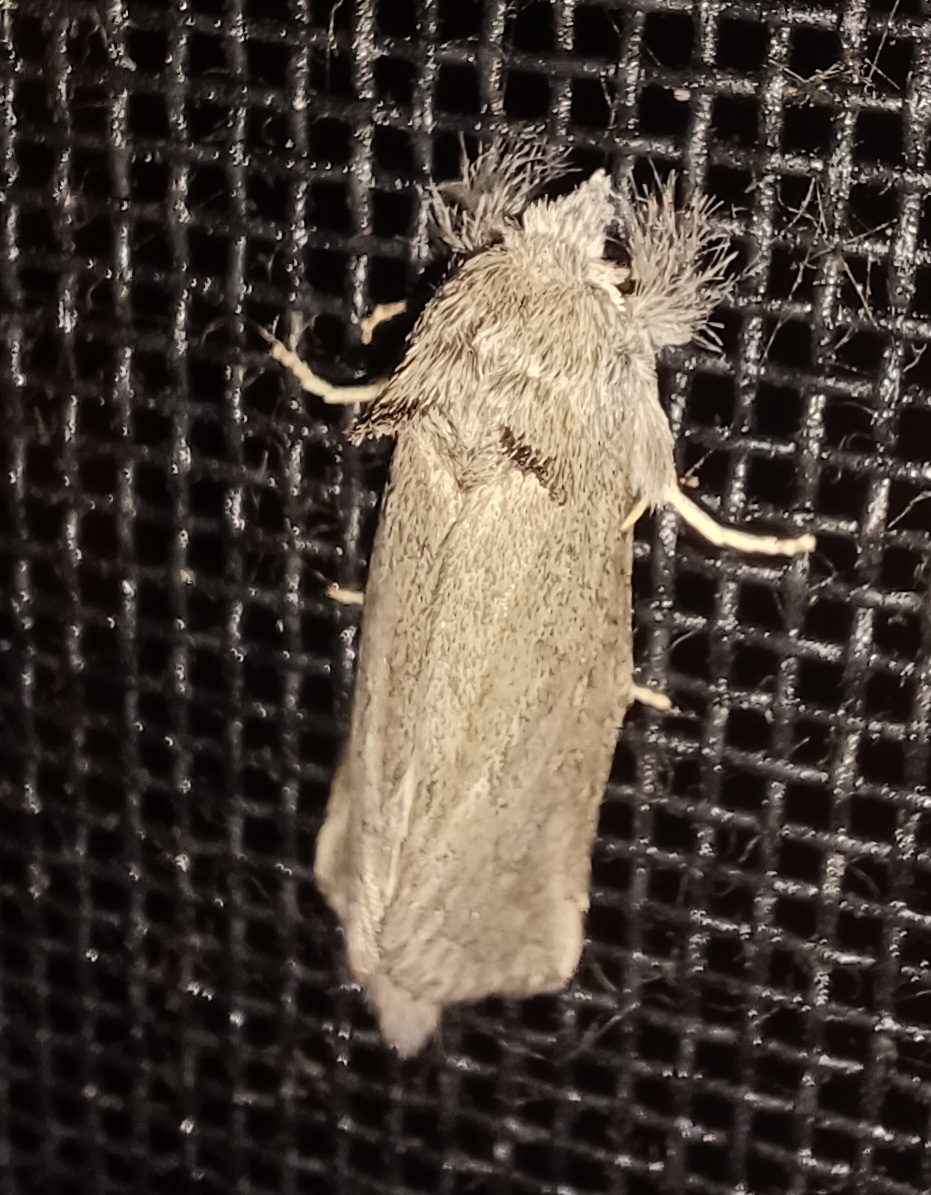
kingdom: Animalia
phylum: Arthropoda
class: Insecta
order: Lepidoptera
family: Notodontidae
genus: Scythrophanes
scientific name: Scythrophanes stenoptera
